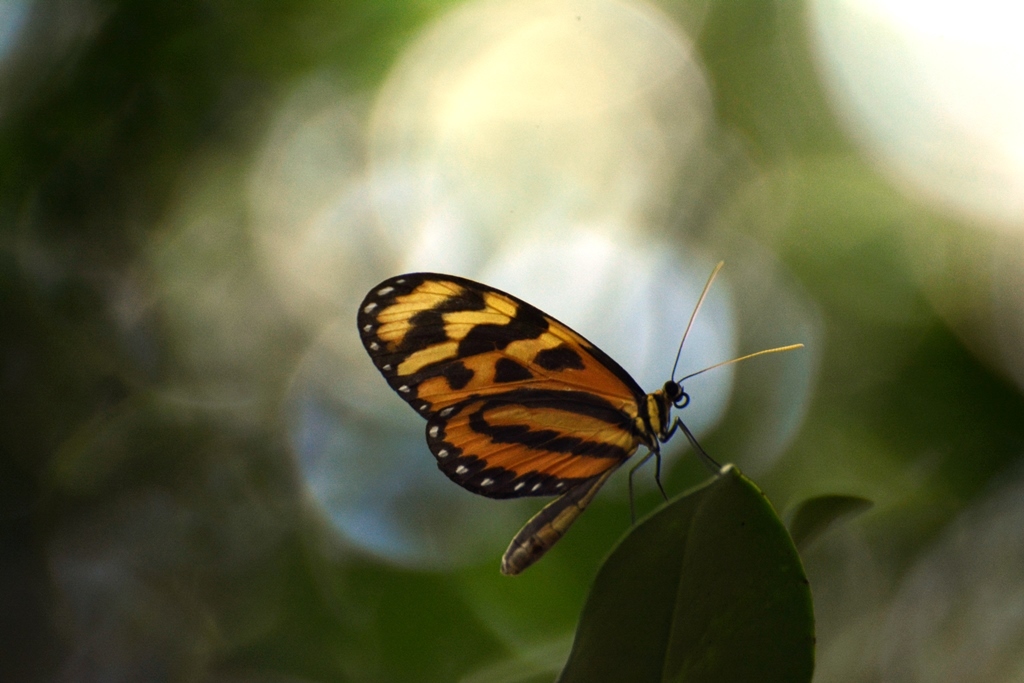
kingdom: Animalia
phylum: Arthropoda
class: Insecta
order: Lepidoptera
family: Nymphalidae
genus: Mechanitis
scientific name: Mechanitis lysimnia
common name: Lysimnia tigerwing
